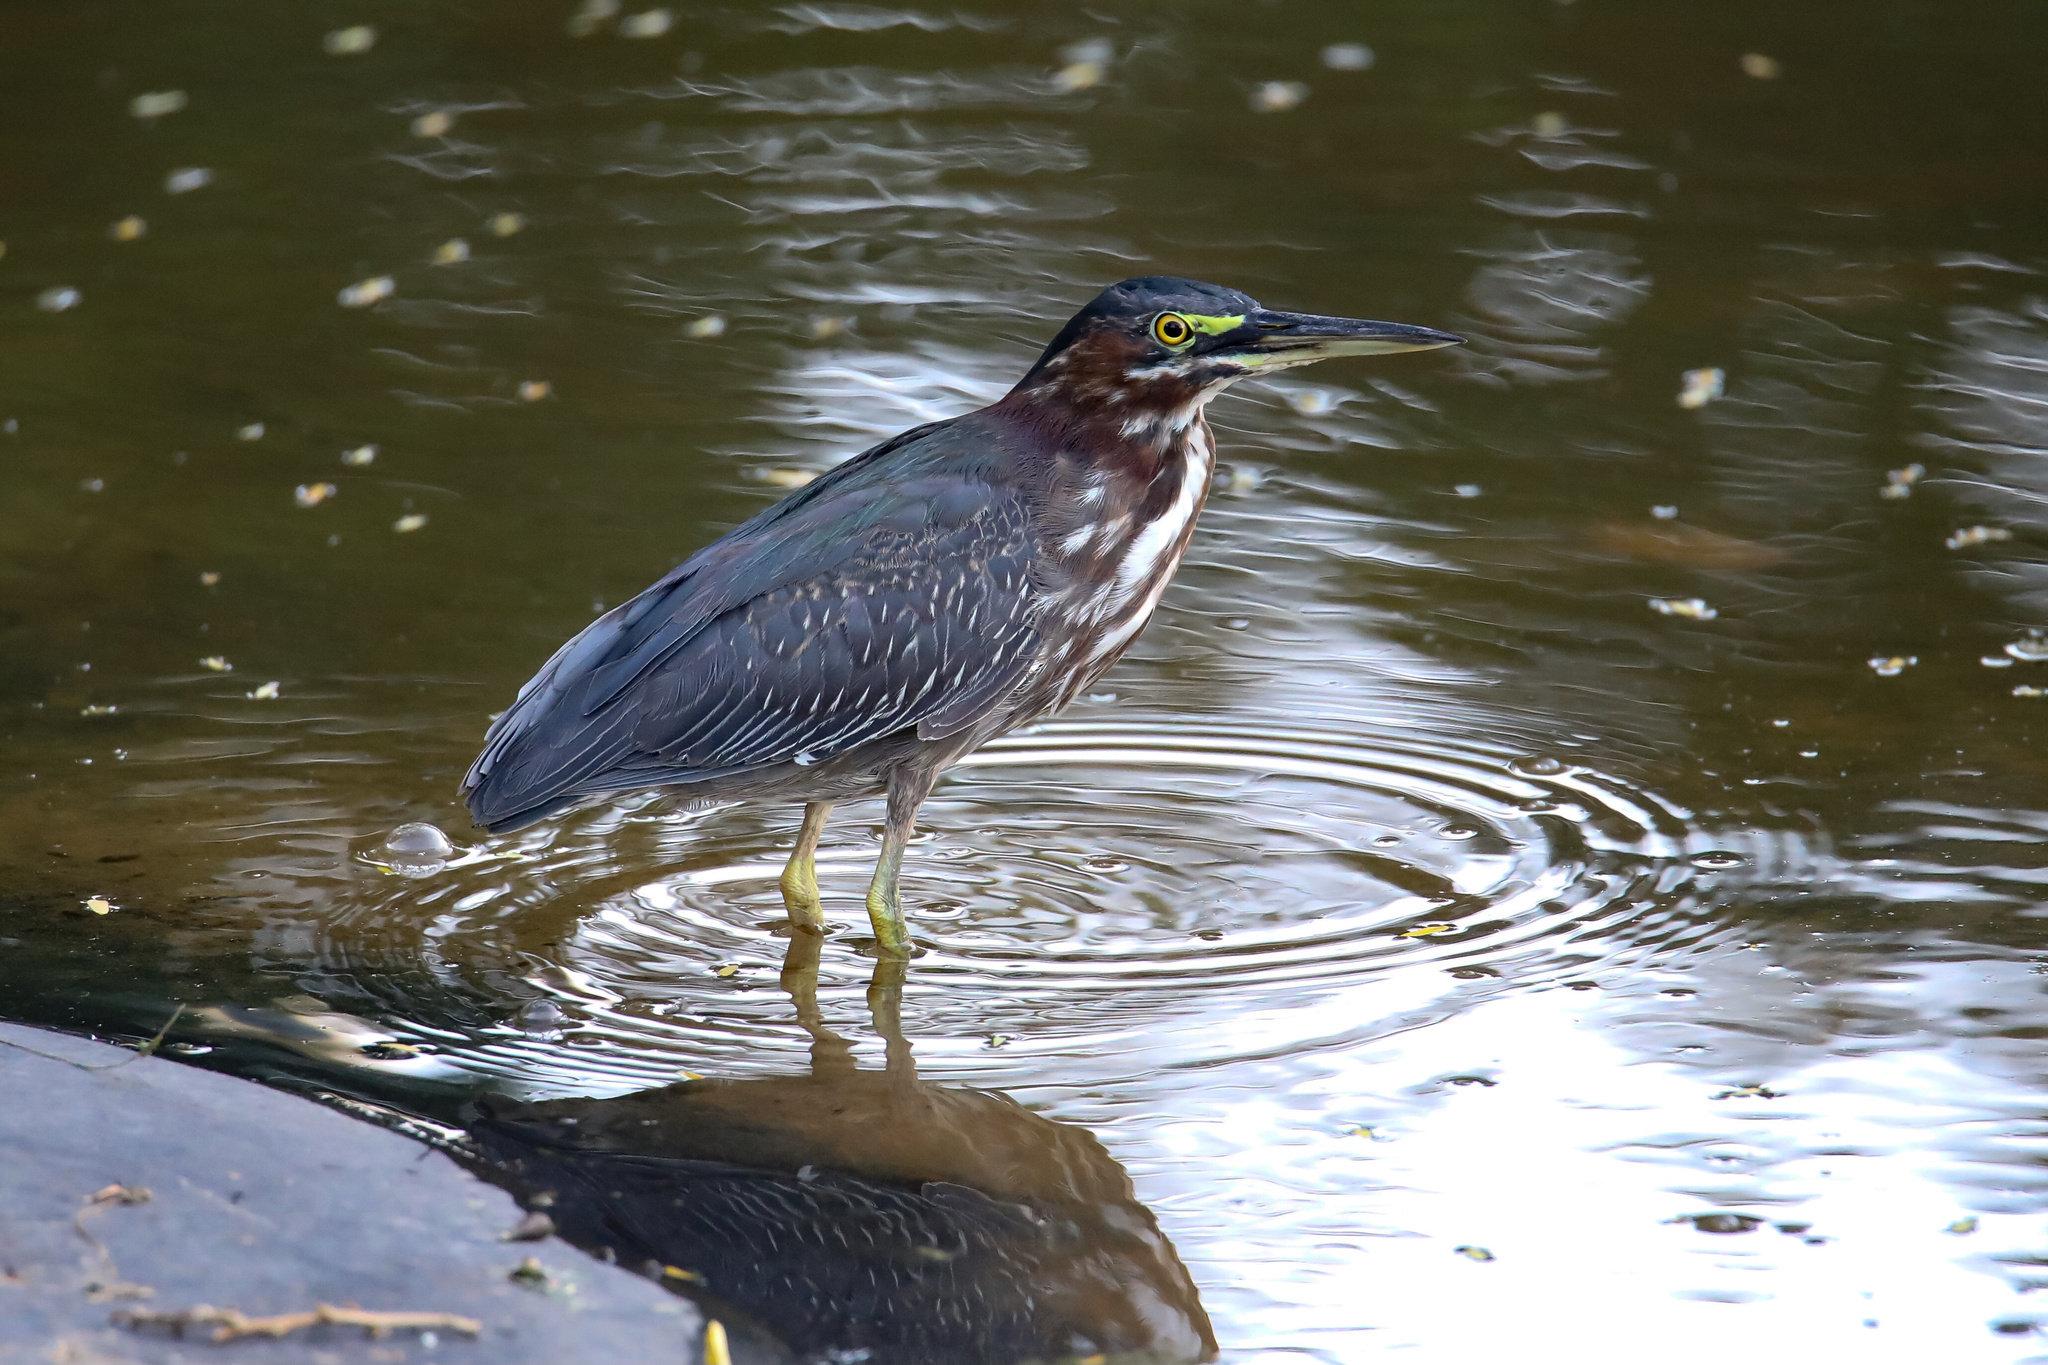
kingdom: Animalia
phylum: Chordata
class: Aves
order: Pelecaniformes
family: Ardeidae
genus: Butorides
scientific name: Butorides virescens
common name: Green heron
